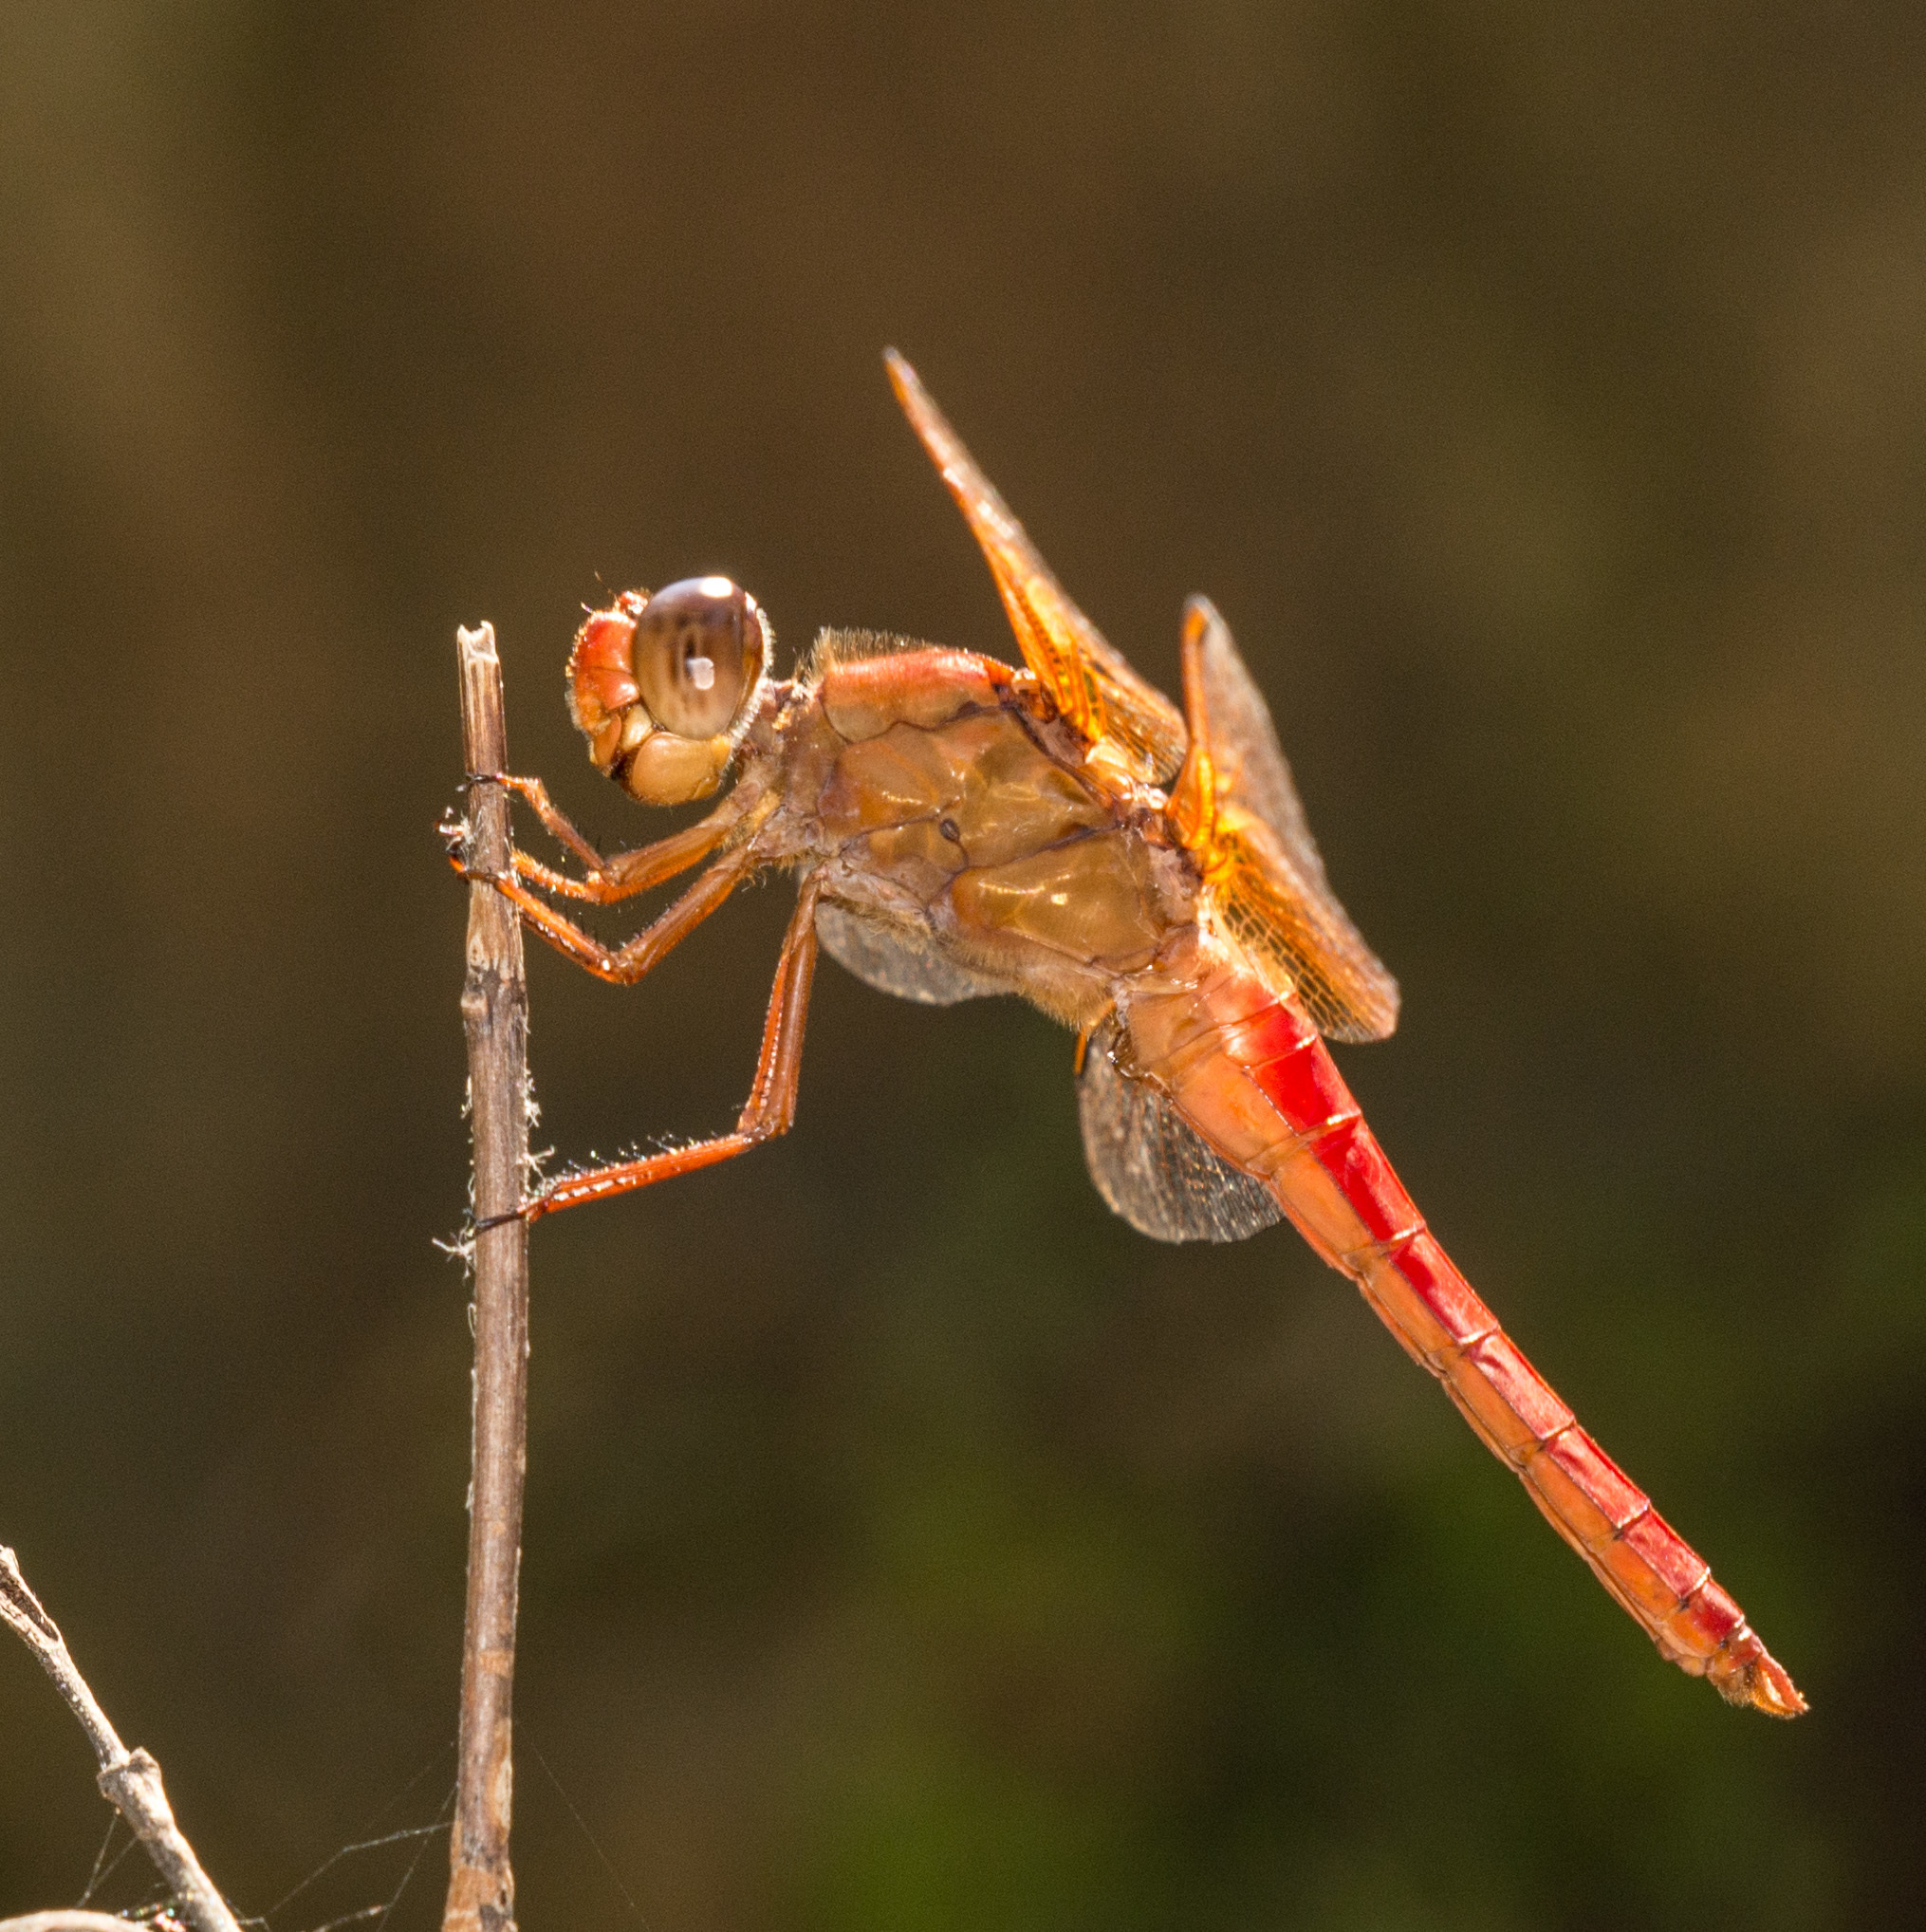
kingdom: Animalia
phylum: Arthropoda
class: Insecta
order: Odonata
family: Libellulidae
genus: Libellula
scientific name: Libellula croceipennis
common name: Neon skimmer
